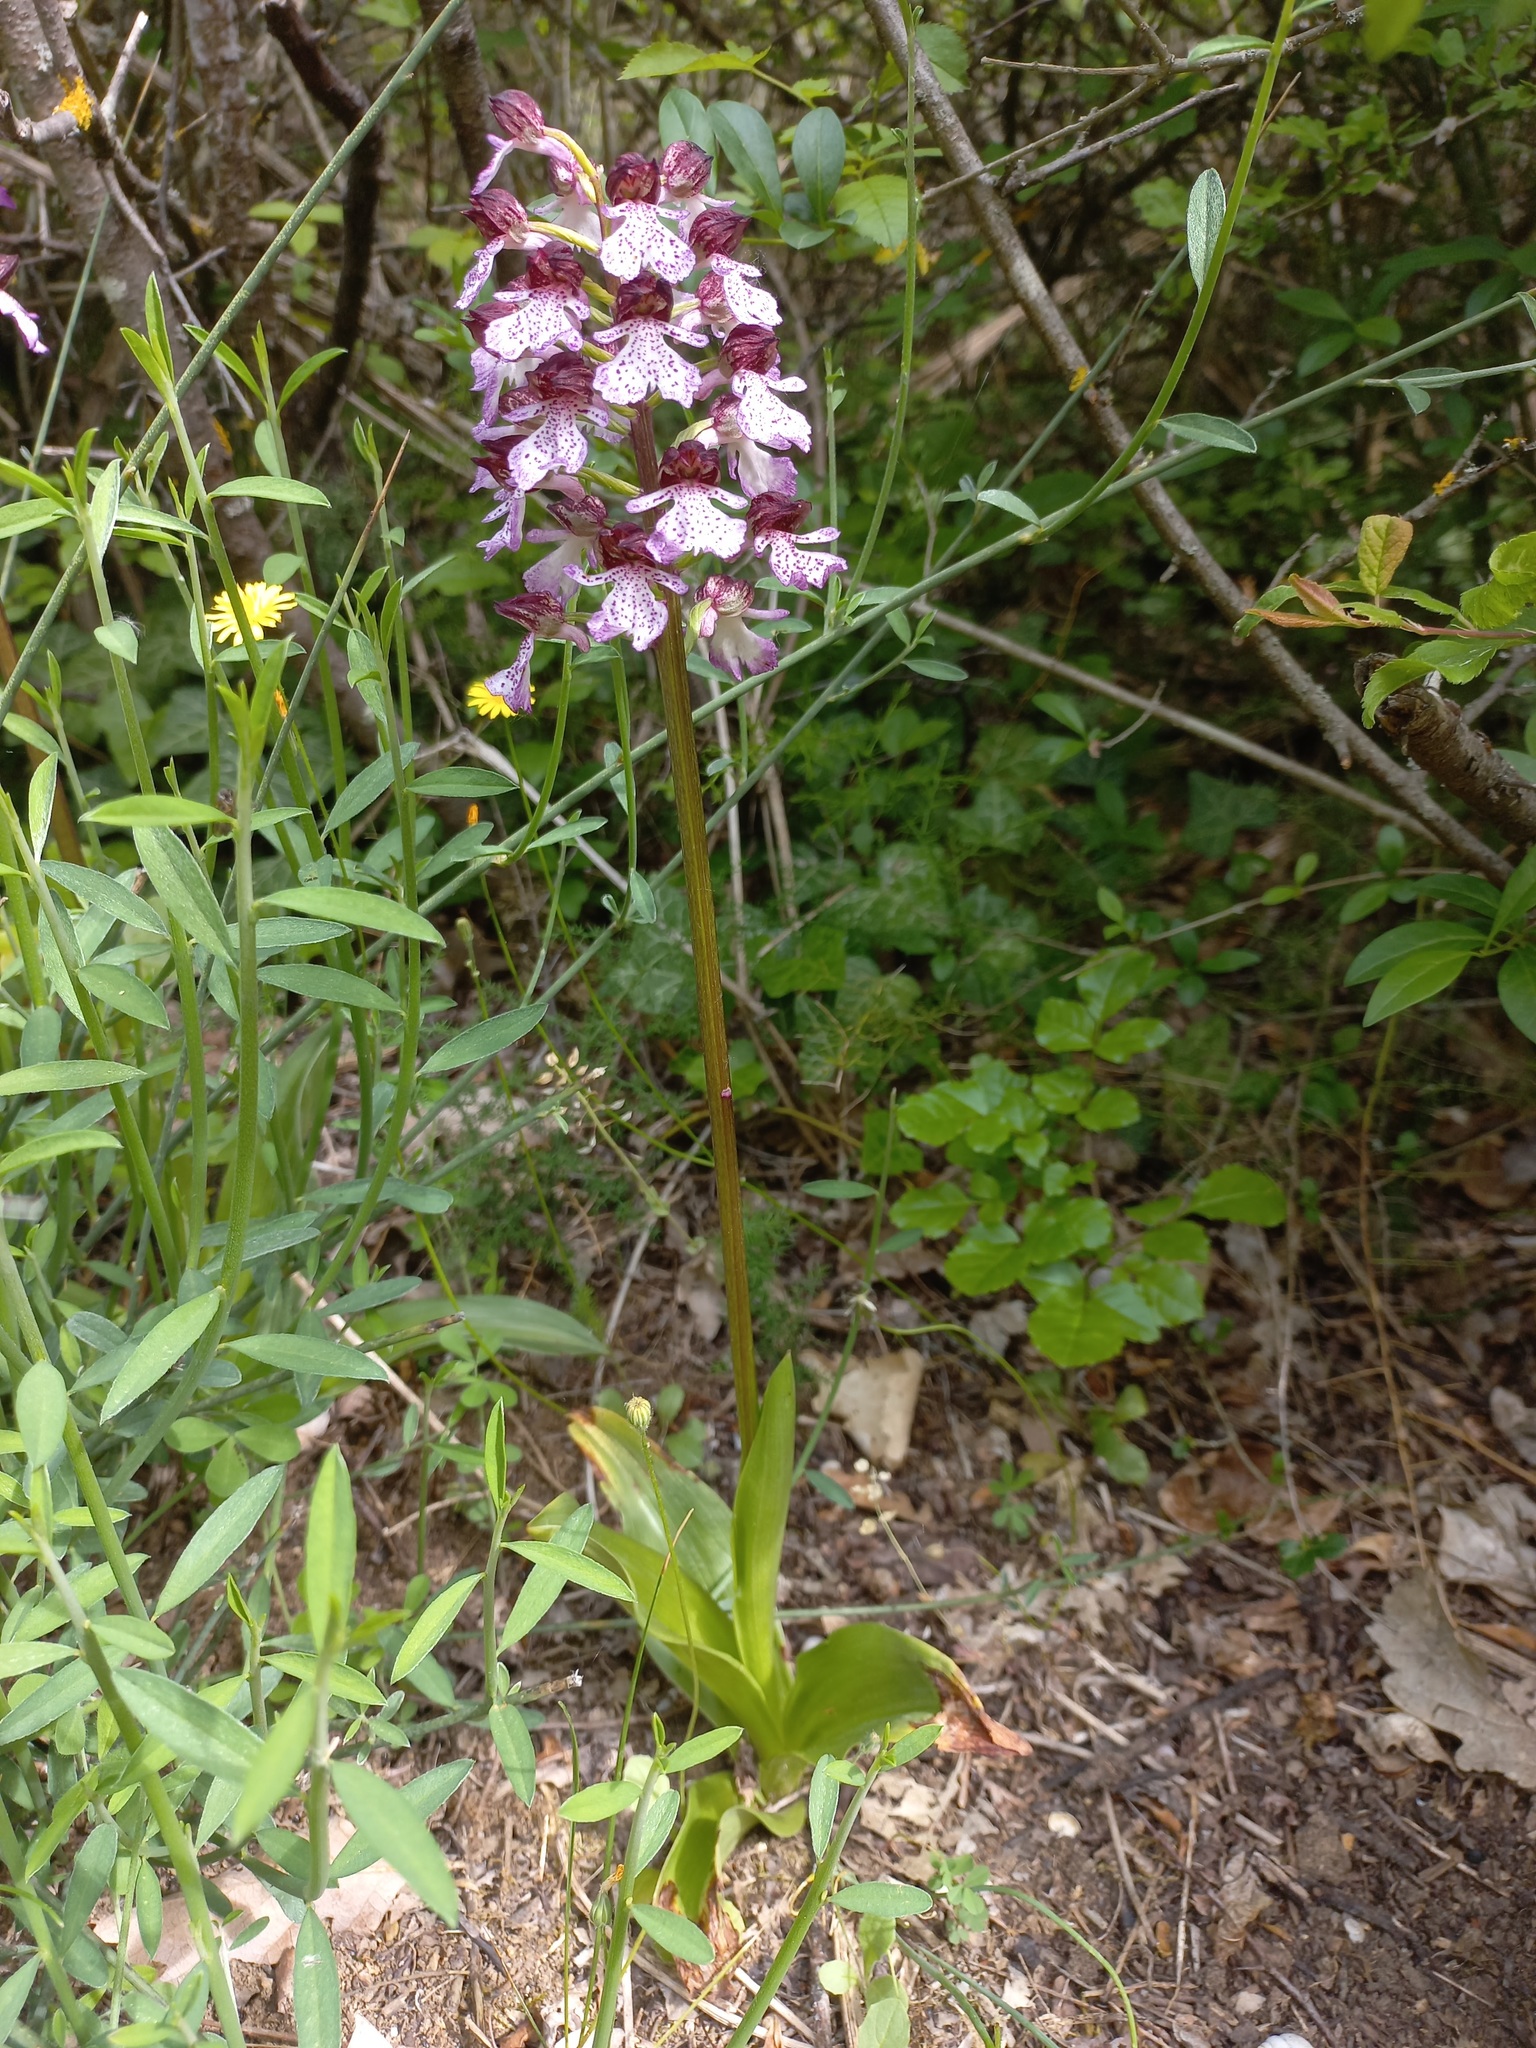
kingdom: Plantae
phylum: Tracheophyta
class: Liliopsida
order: Asparagales
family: Orchidaceae
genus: Orchis
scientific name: Orchis purpurea
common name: Lady orchid
